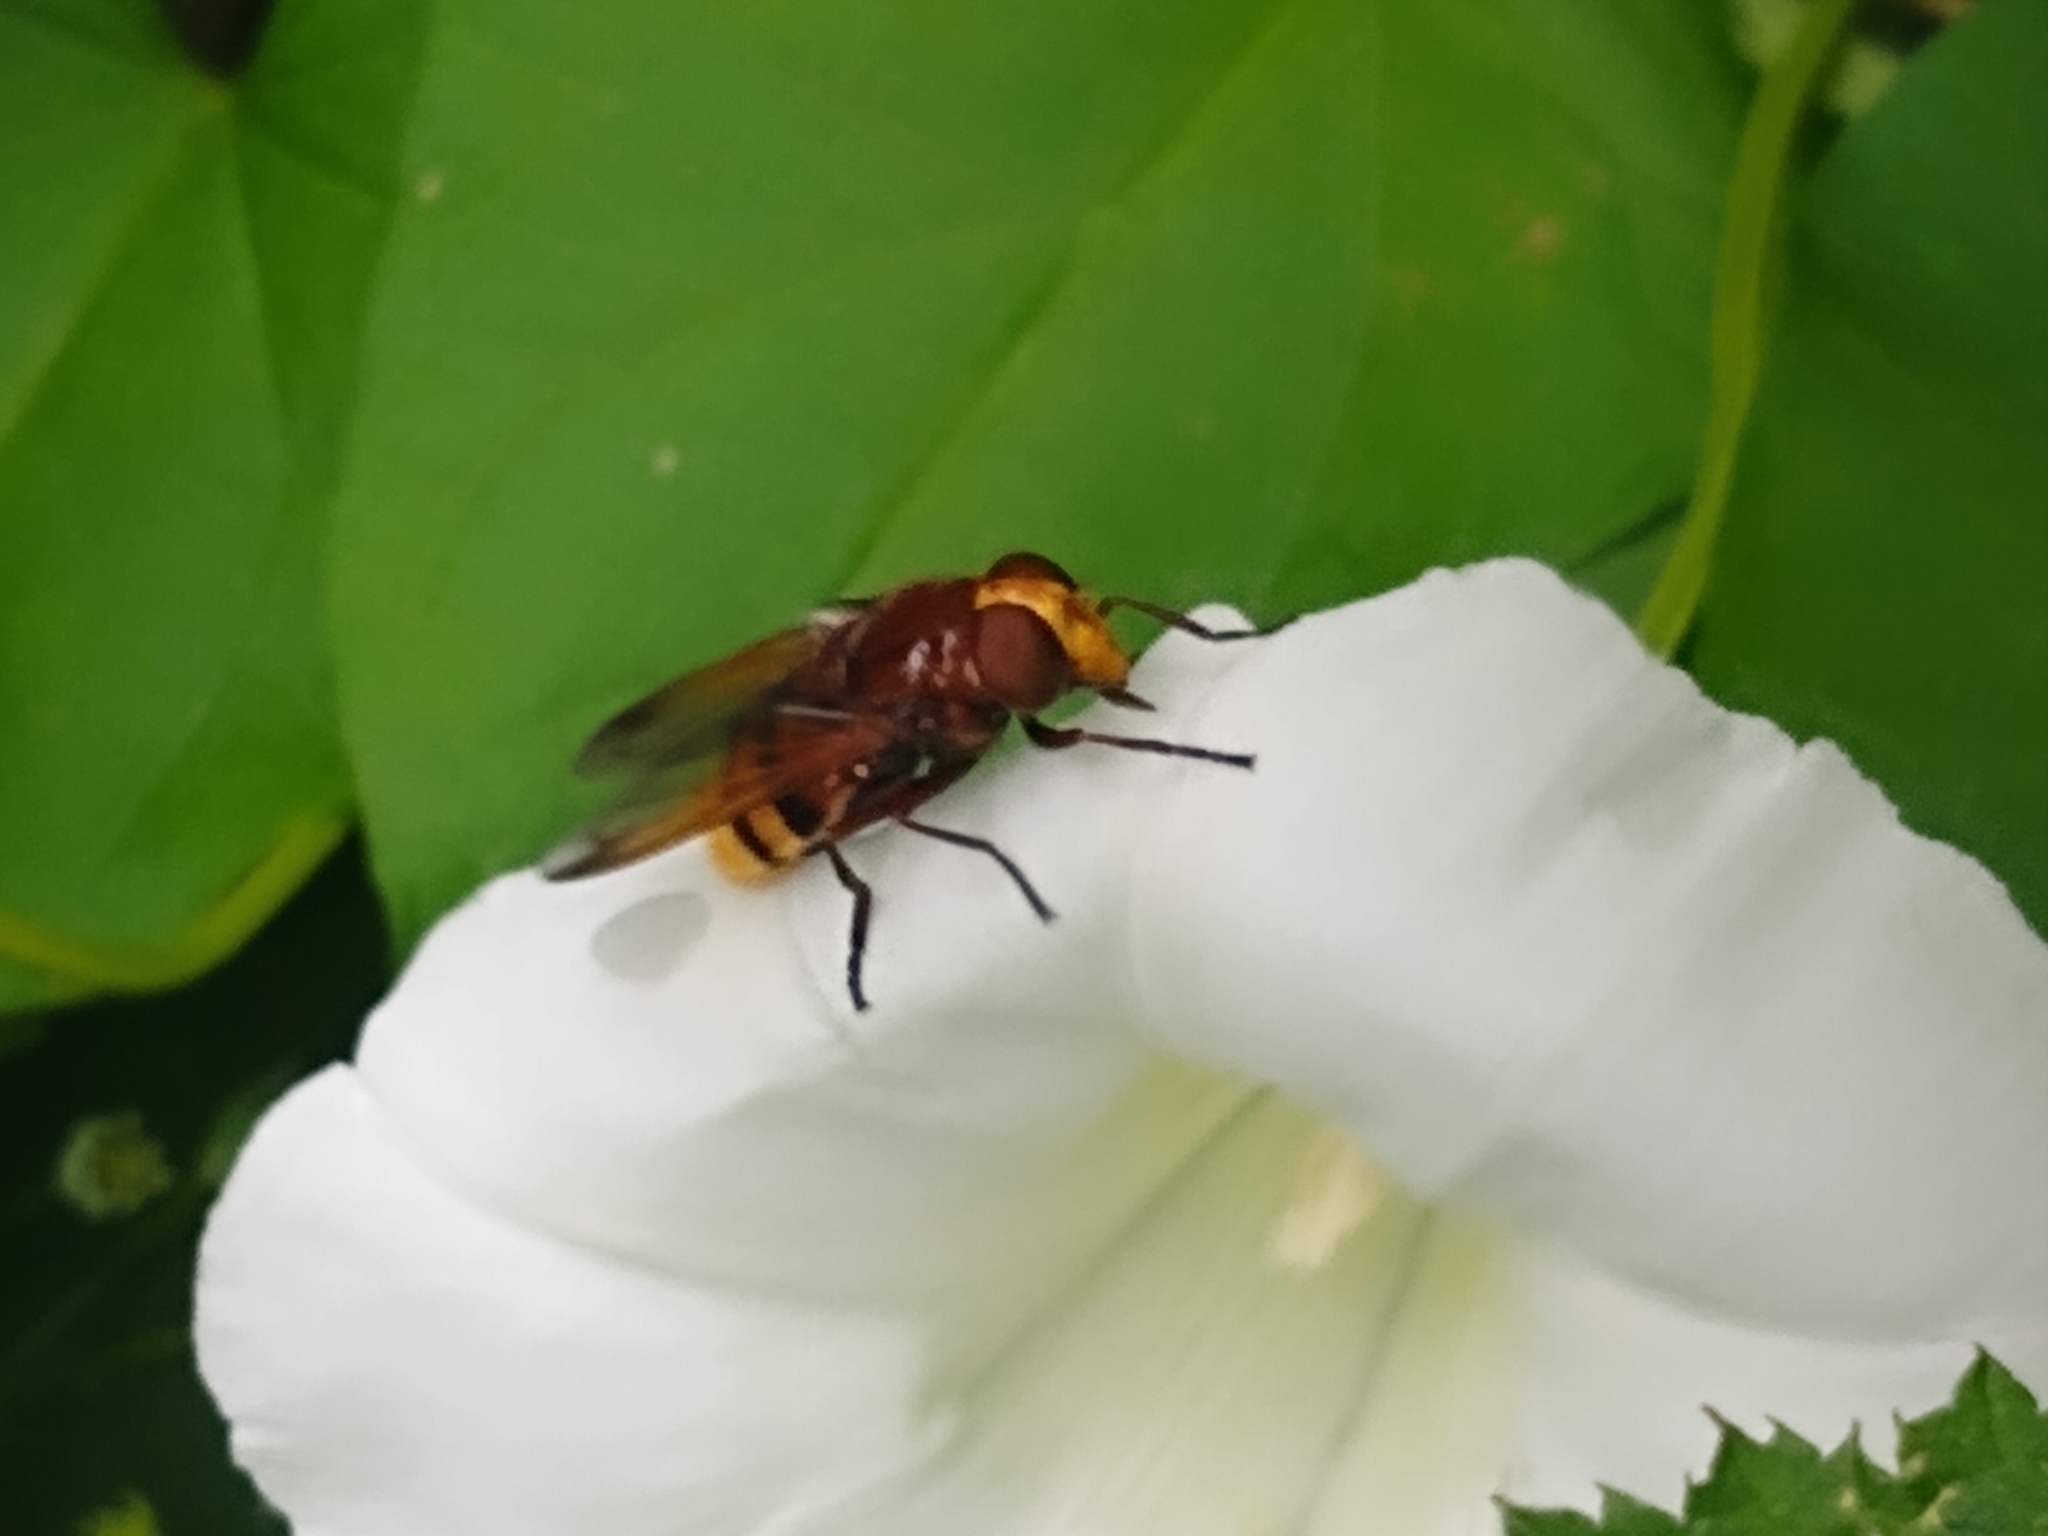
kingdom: Animalia
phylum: Arthropoda
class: Insecta
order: Diptera
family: Syrphidae
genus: Volucella
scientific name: Volucella zonaria
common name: Hornet hoverfly
